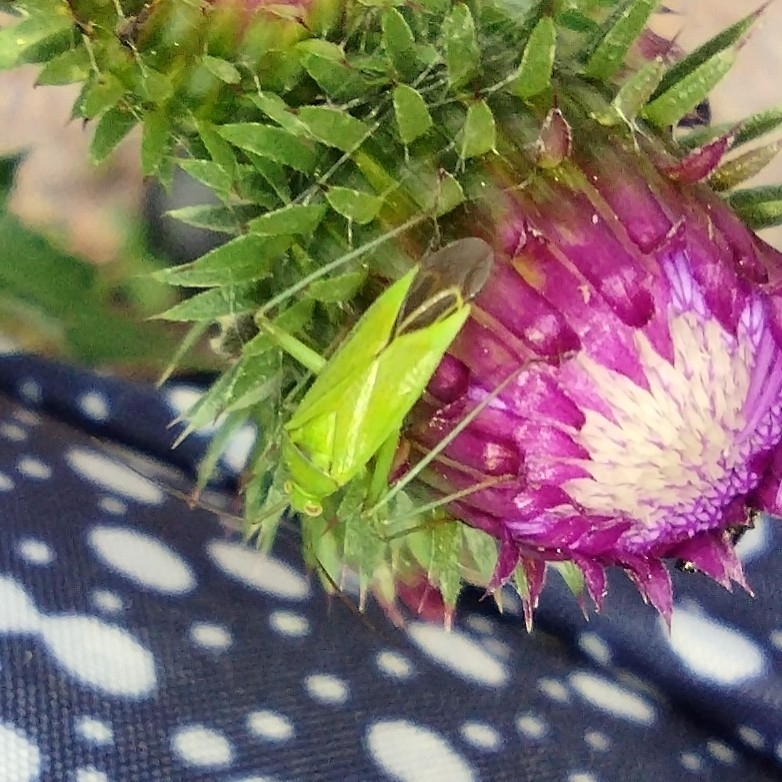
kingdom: Animalia
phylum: Arthropoda
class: Insecta
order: Hemiptera
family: Miridae
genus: Calocoris
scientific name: Calocoris affinis
